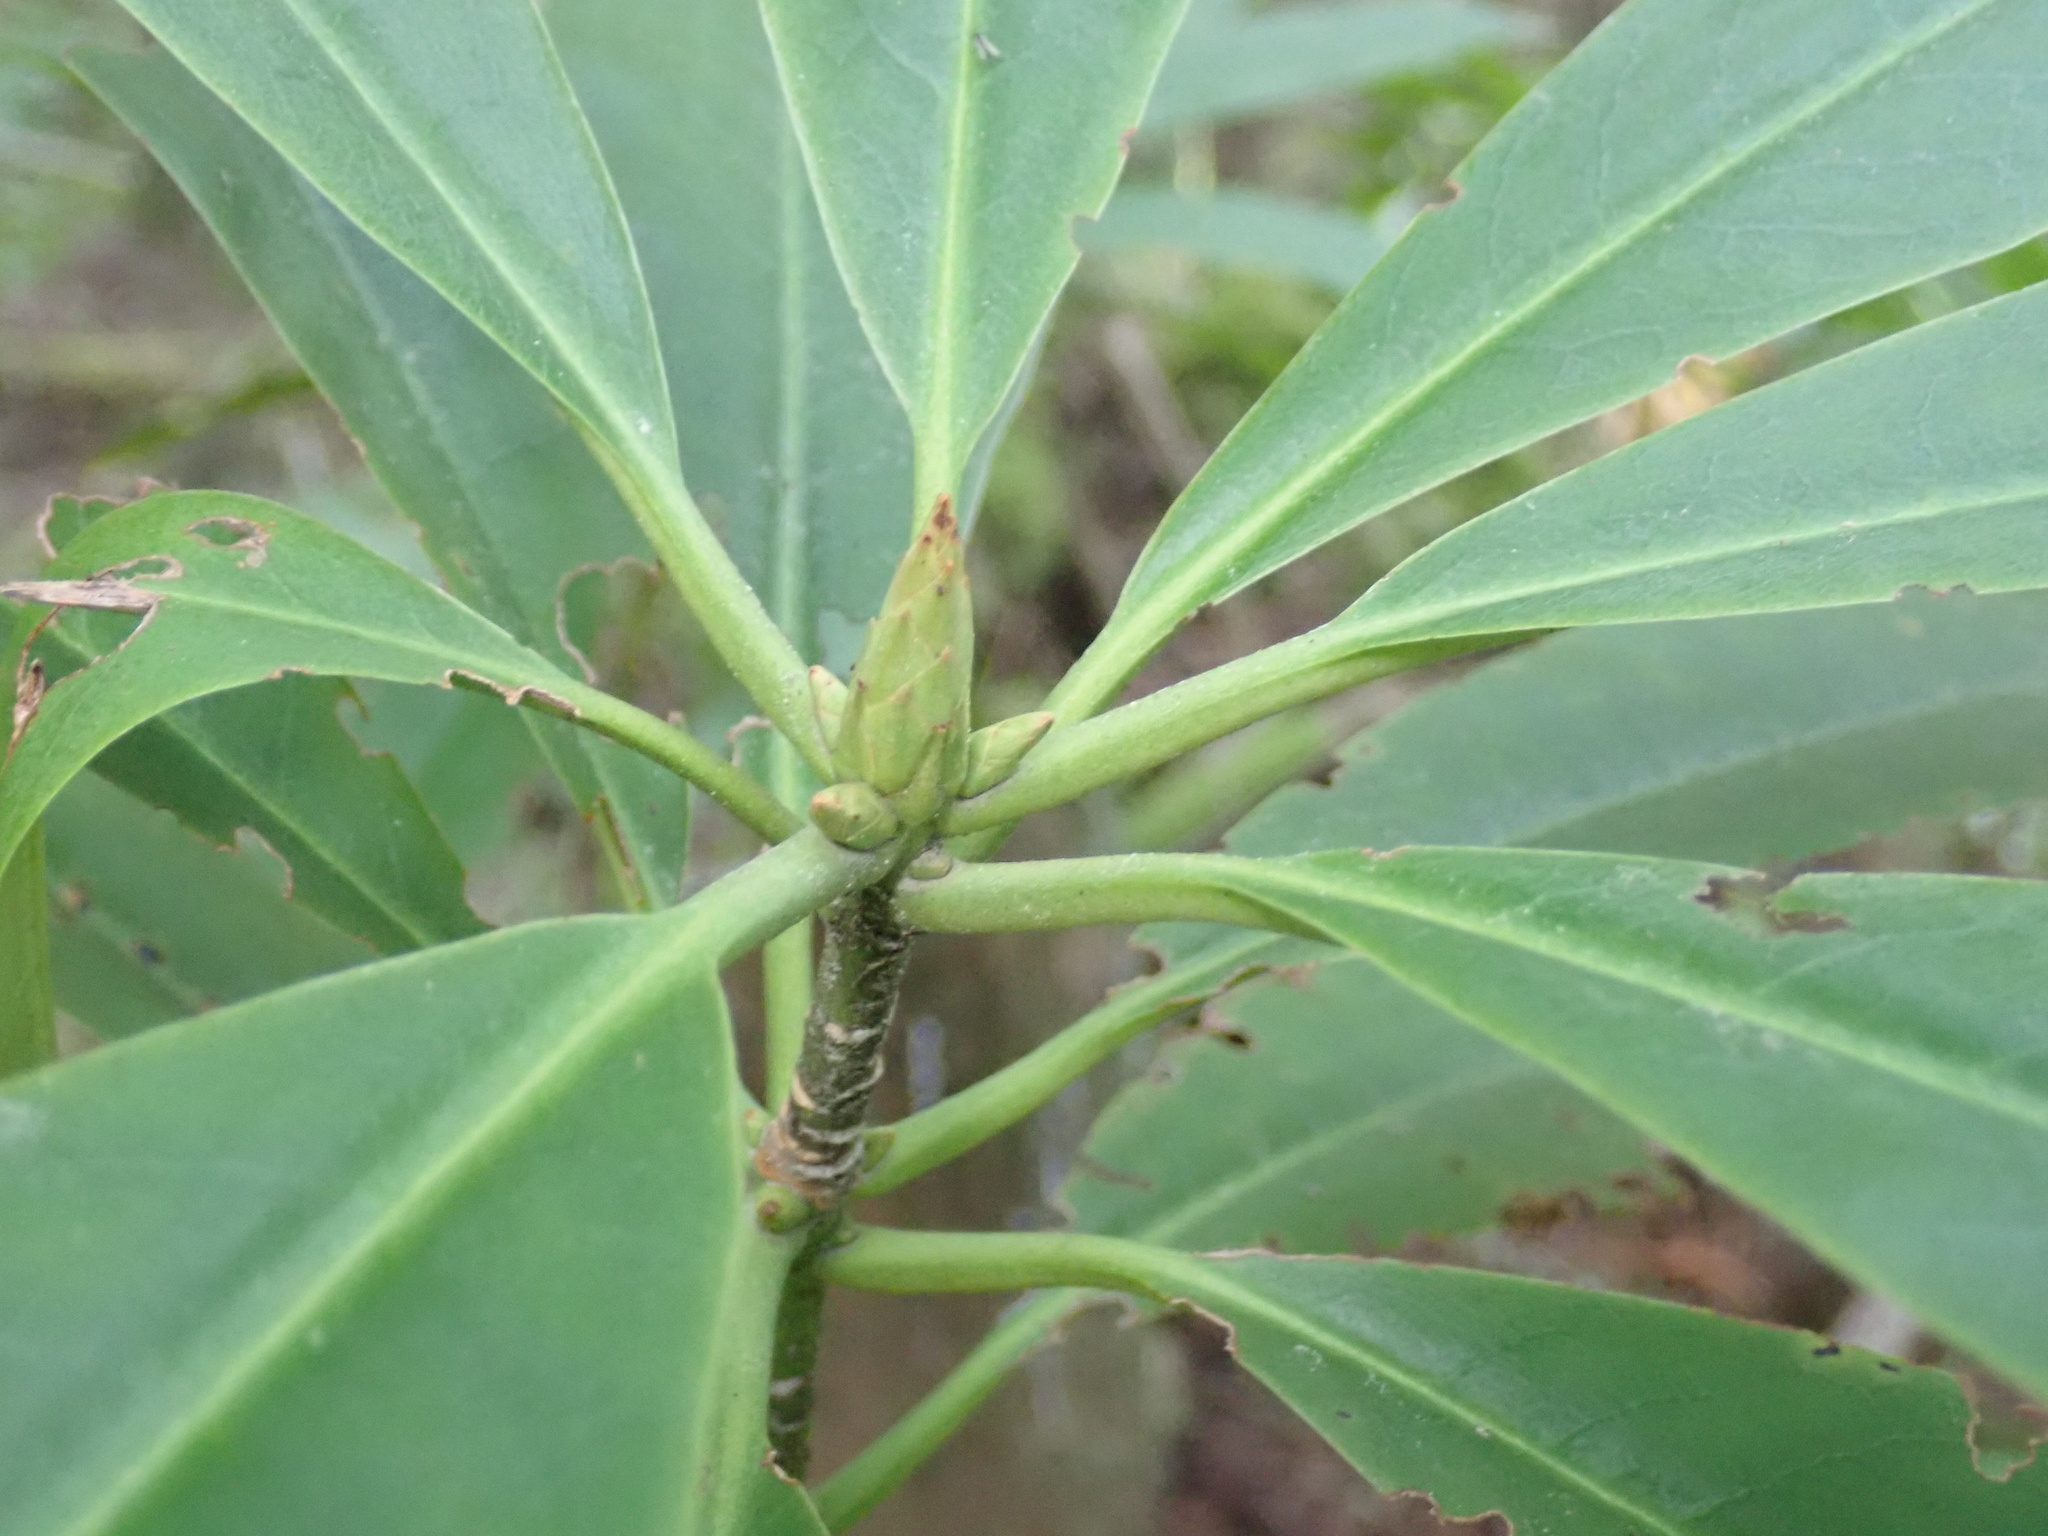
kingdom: Plantae
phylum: Tracheophyta
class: Magnoliopsida
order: Ericales
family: Ericaceae
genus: Rhododendron
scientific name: Rhododendron macrophyllum
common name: California rose bay
